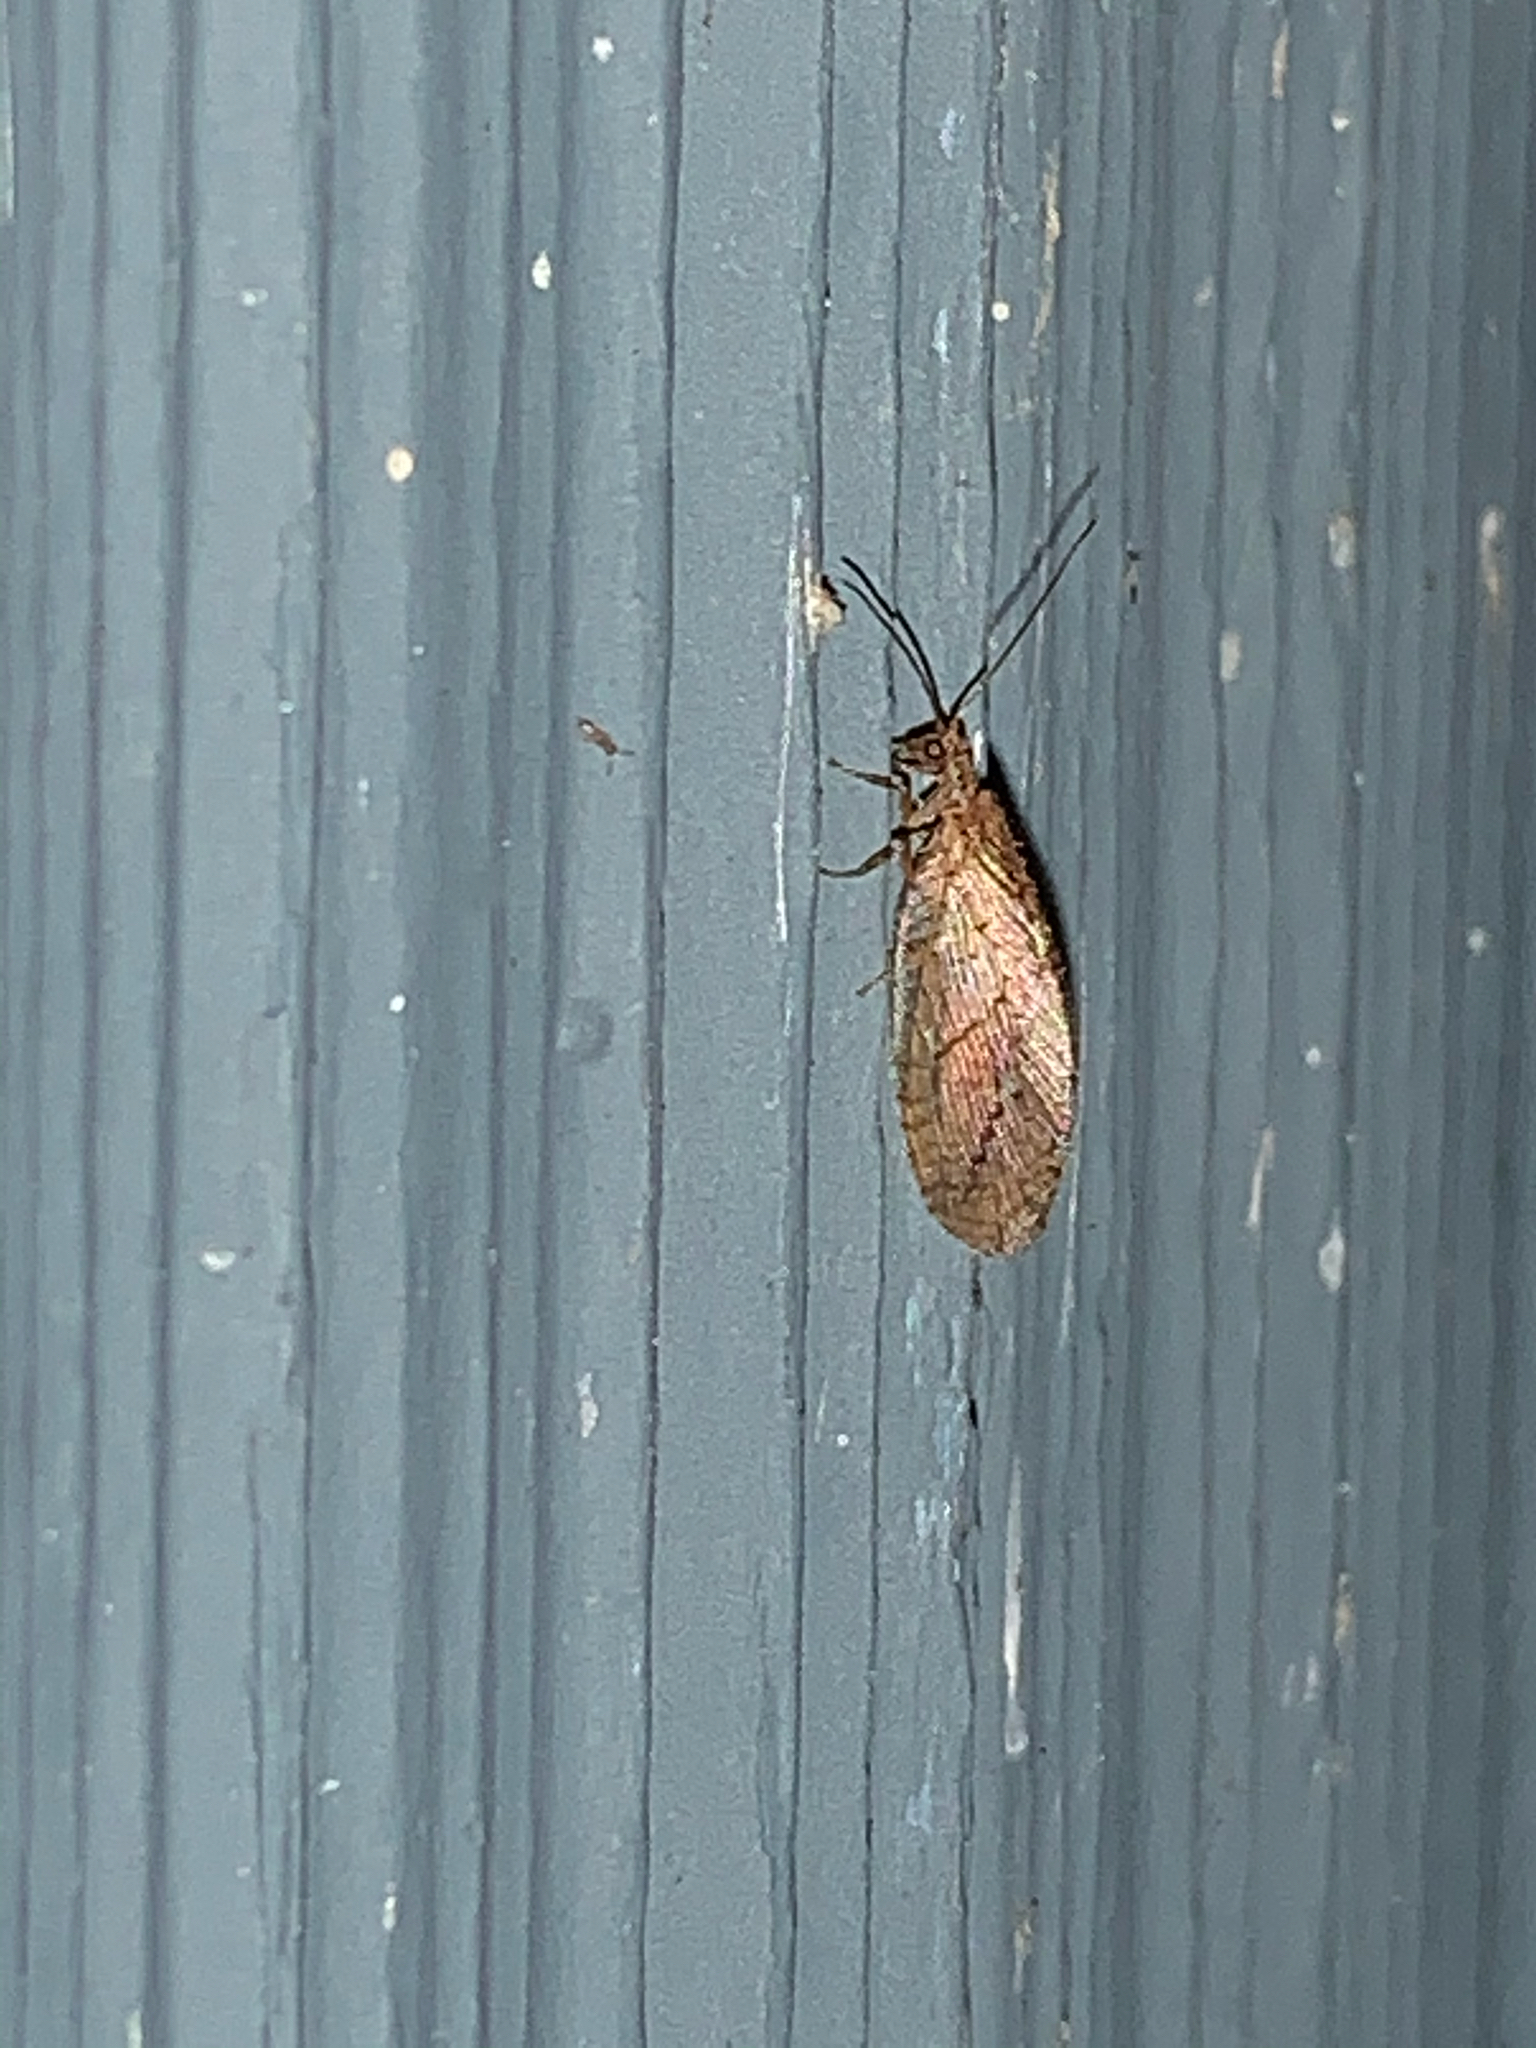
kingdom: Animalia
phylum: Arthropoda
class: Insecta
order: Neuroptera
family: Hemerobiidae
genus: Micromus
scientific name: Micromus posticus
